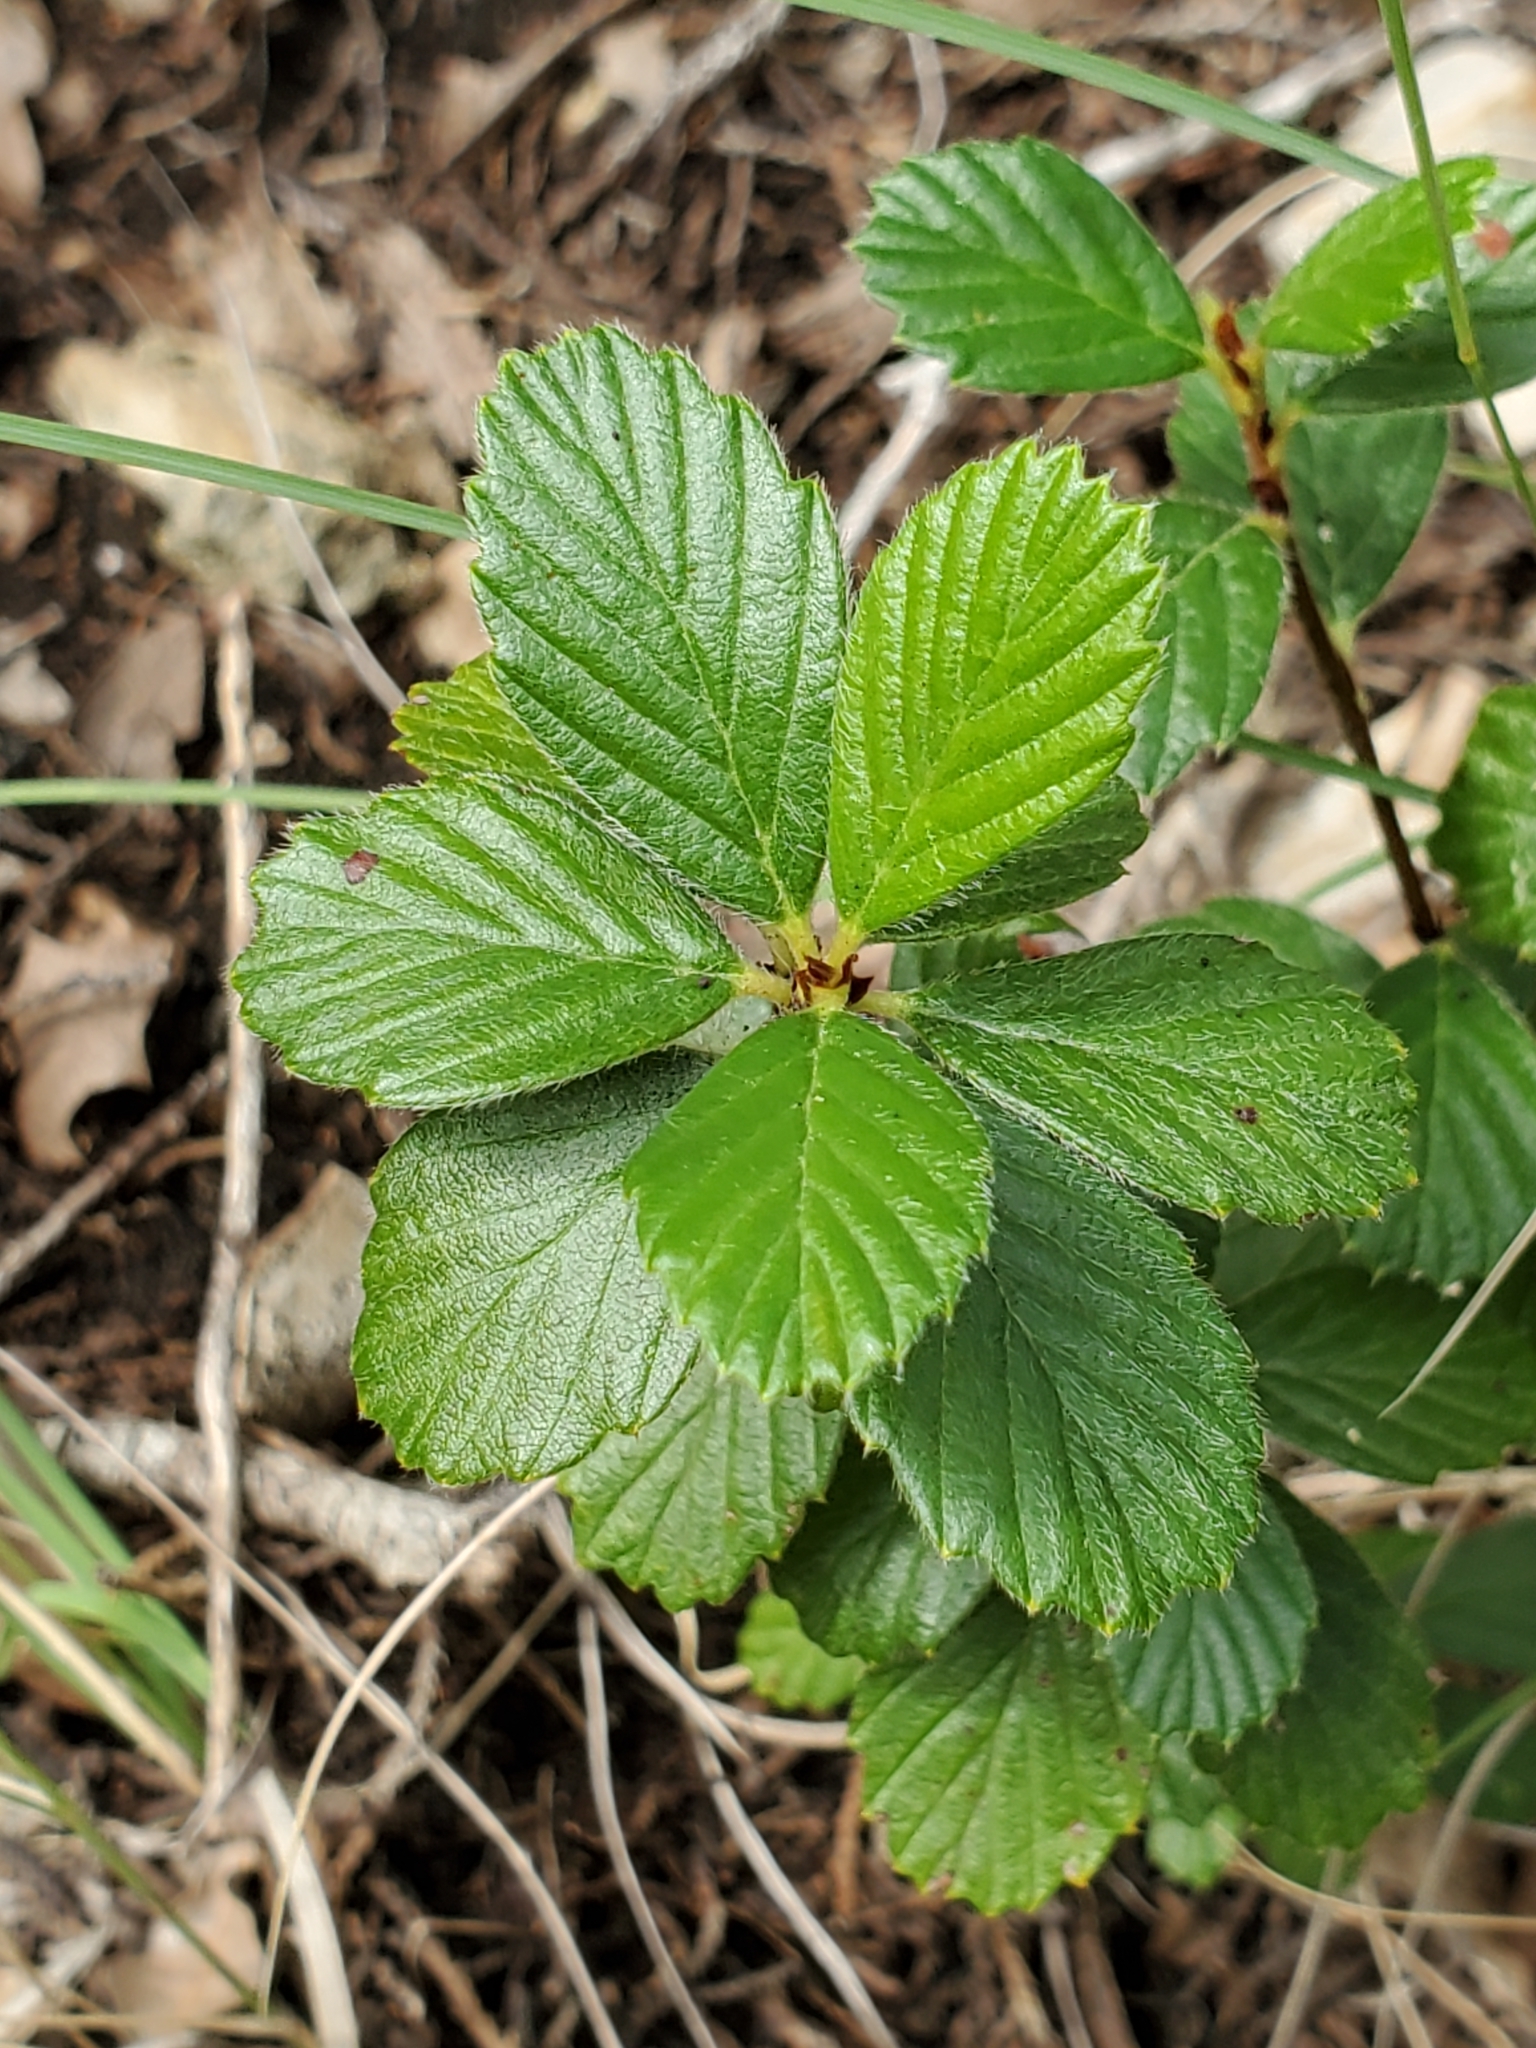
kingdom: Plantae
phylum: Tracheophyta
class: Magnoliopsida
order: Rosales
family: Rosaceae
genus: Cercocarpus
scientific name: Cercocarpus montanus
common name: Alder-leaf cercocarpus
